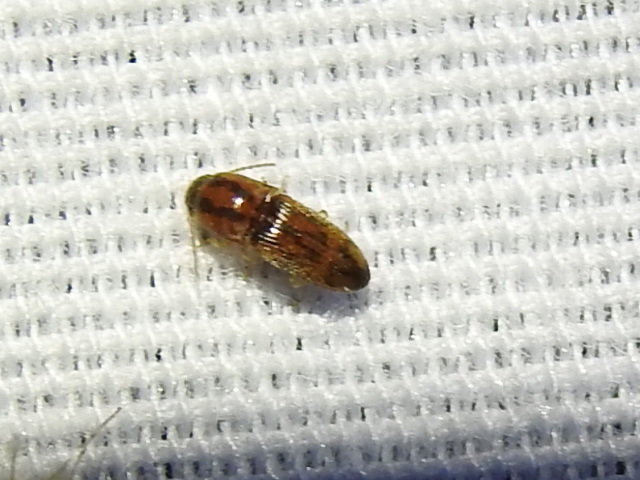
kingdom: Animalia
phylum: Arthropoda
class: Insecta
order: Coleoptera
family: Elateridae
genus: Monocrepidius
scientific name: Monocrepidius bellus
